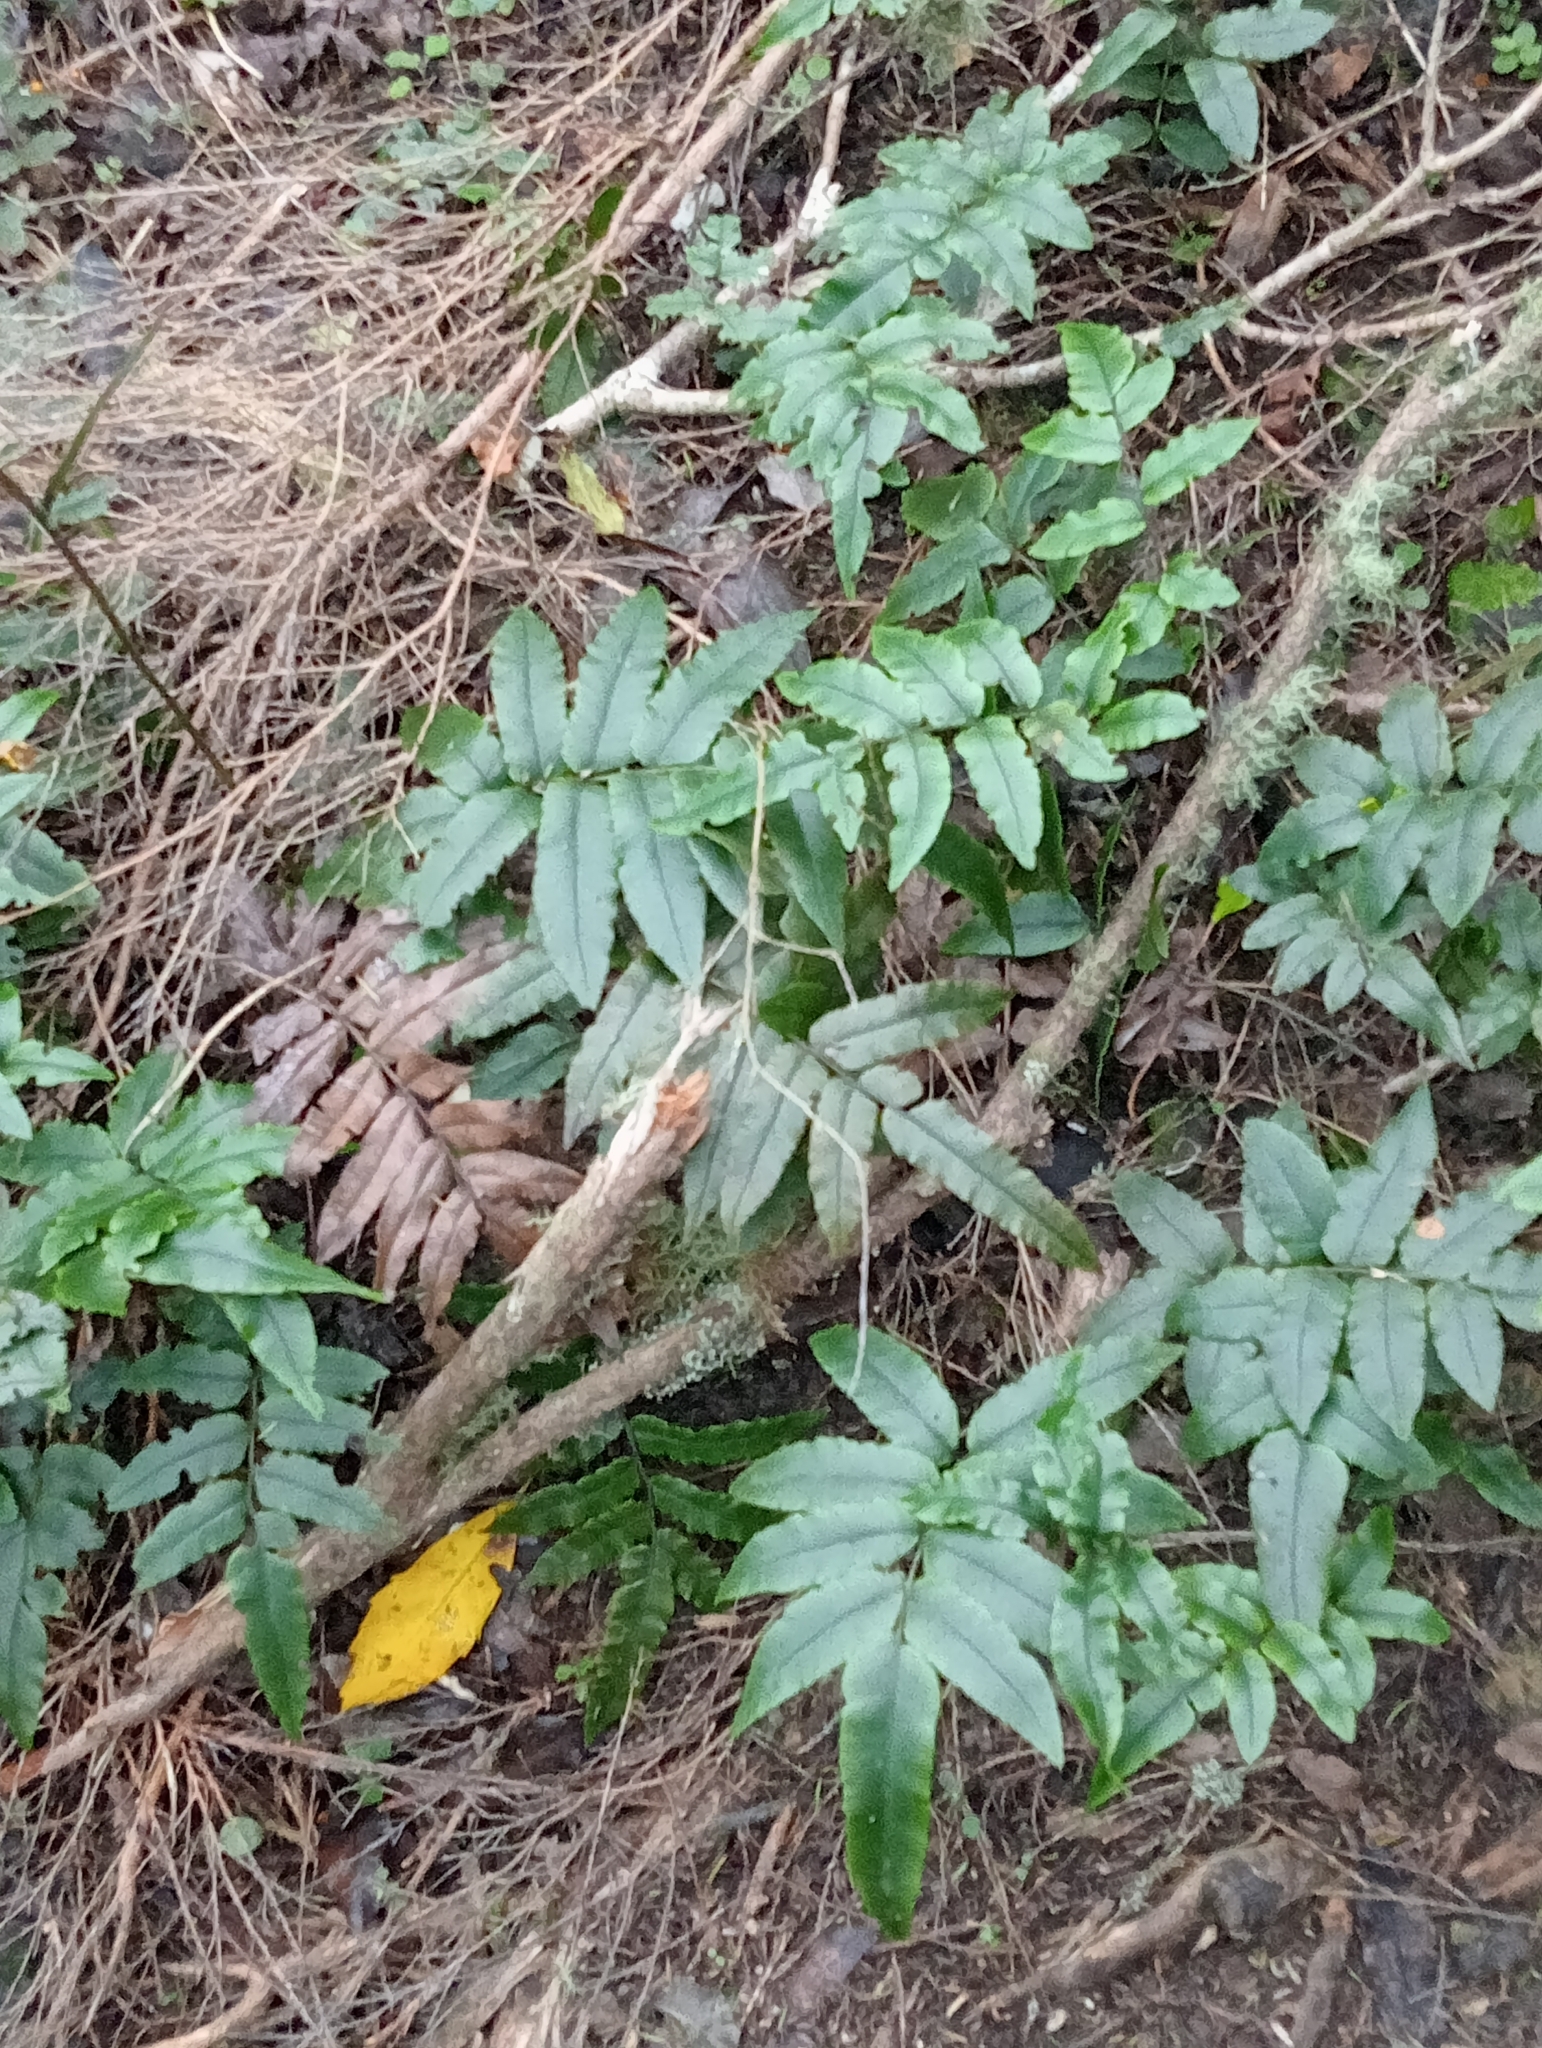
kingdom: Plantae
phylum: Tracheophyta
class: Polypodiopsida
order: Polypodiales
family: Blechnaceae
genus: Parablechnum
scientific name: Parablechnum procerum
